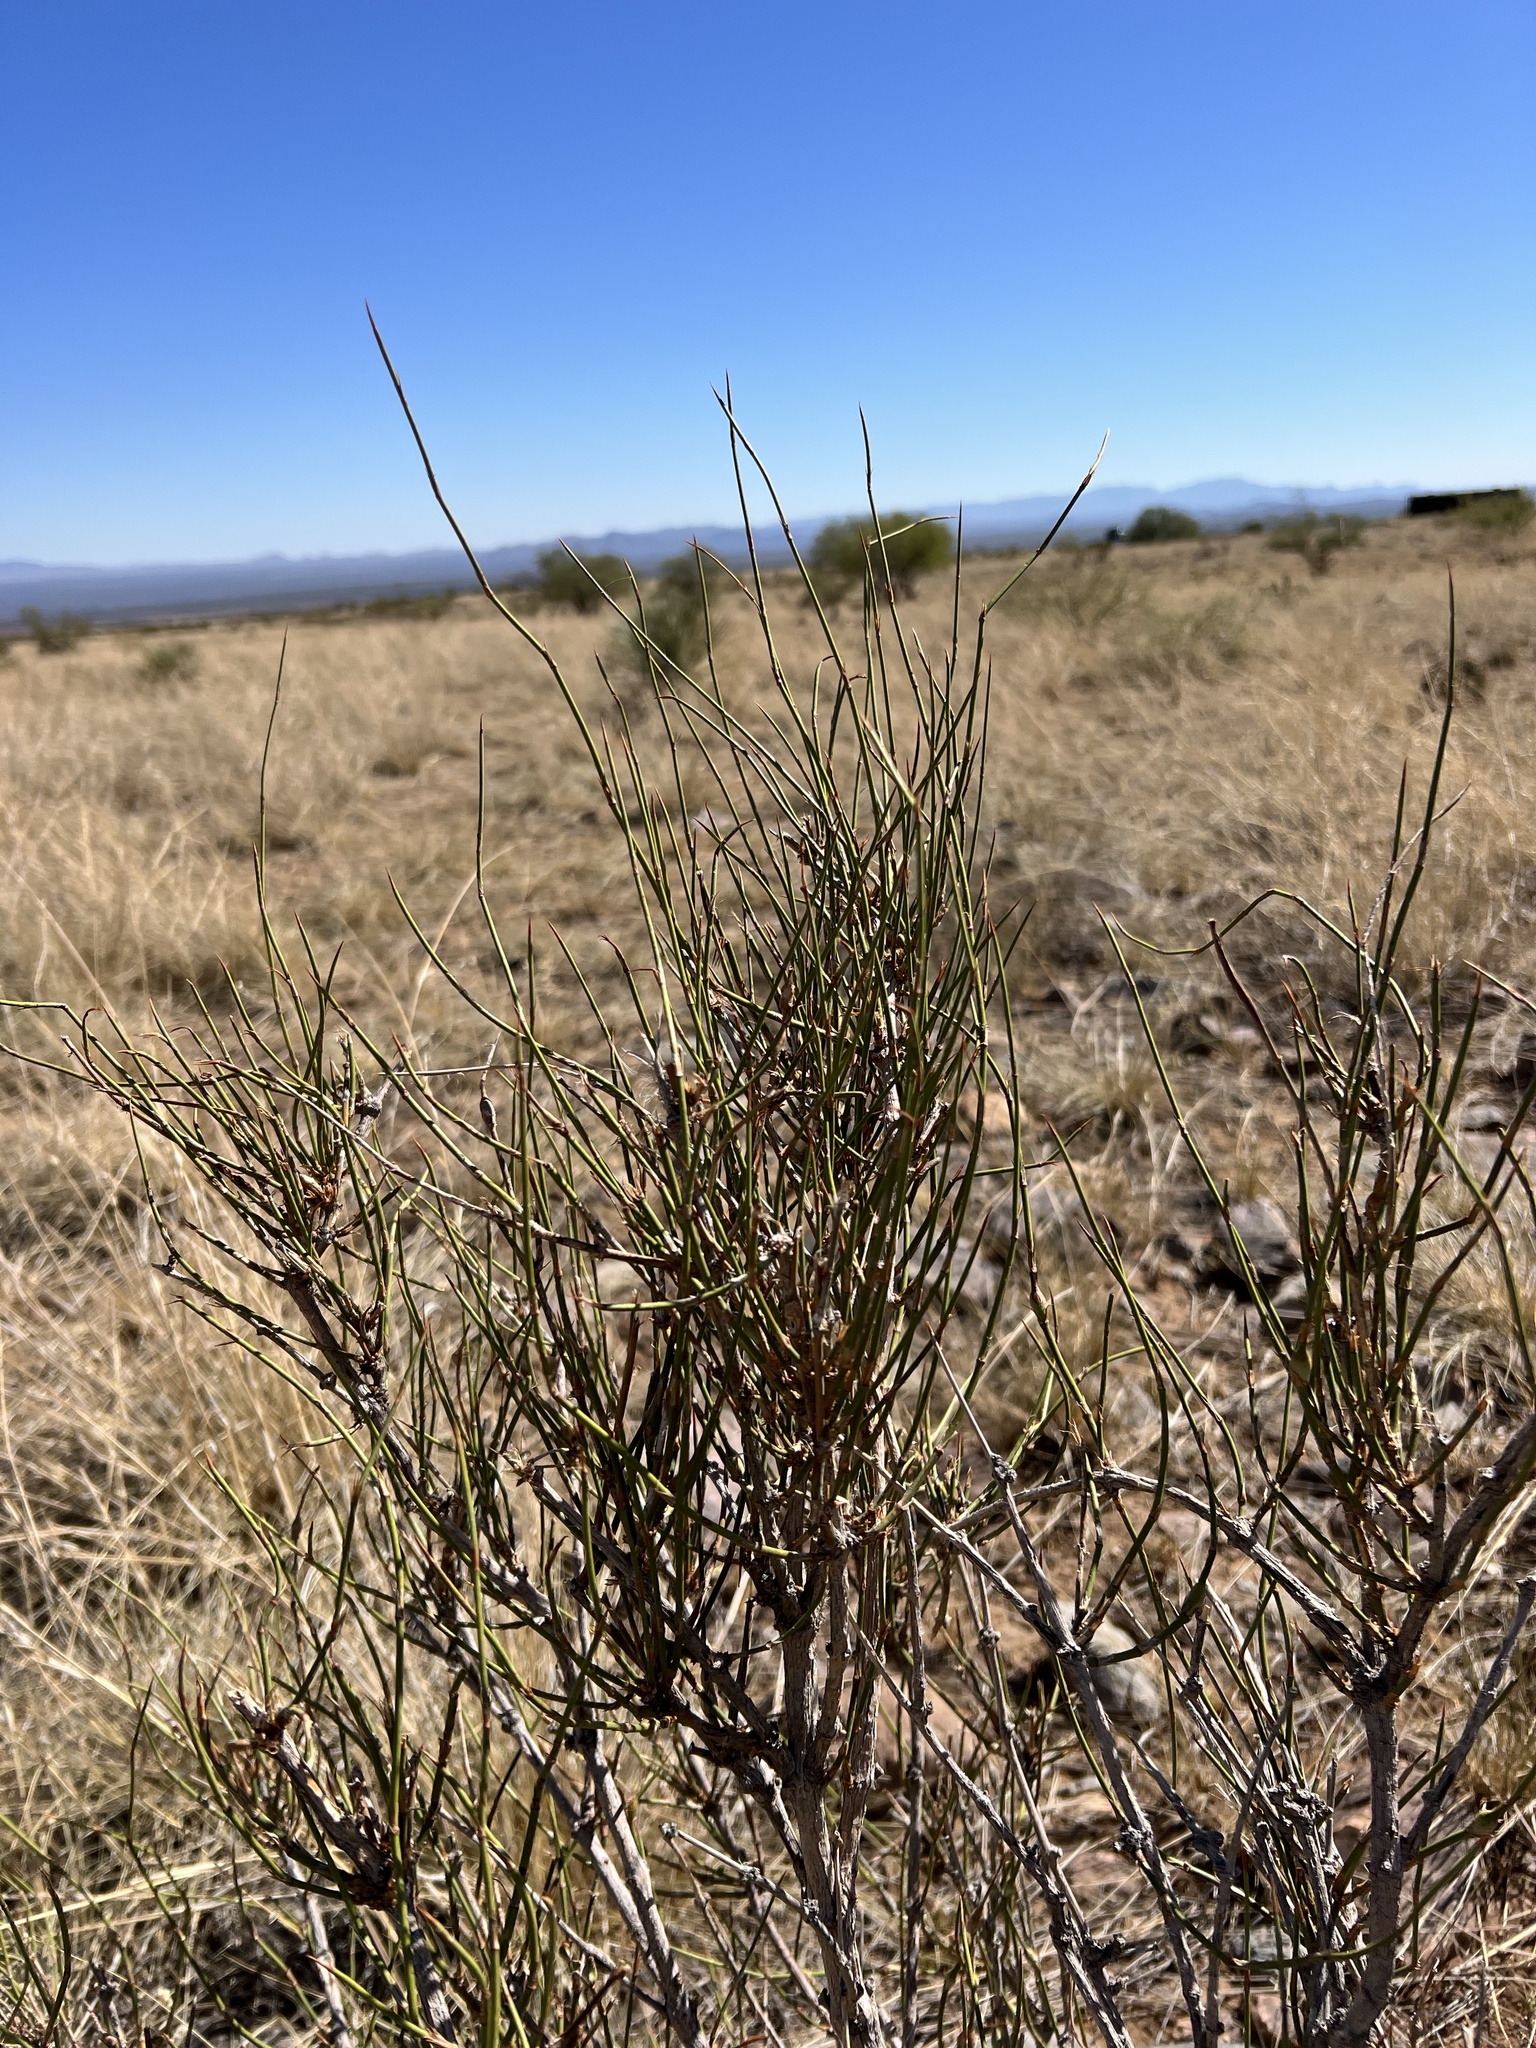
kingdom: Plantae
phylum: Tracheophyta
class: Gnetopsida
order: Ephedrales
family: Ephedraceae
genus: Ephedra
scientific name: Ephedra trifurca
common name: Mexican-tea
